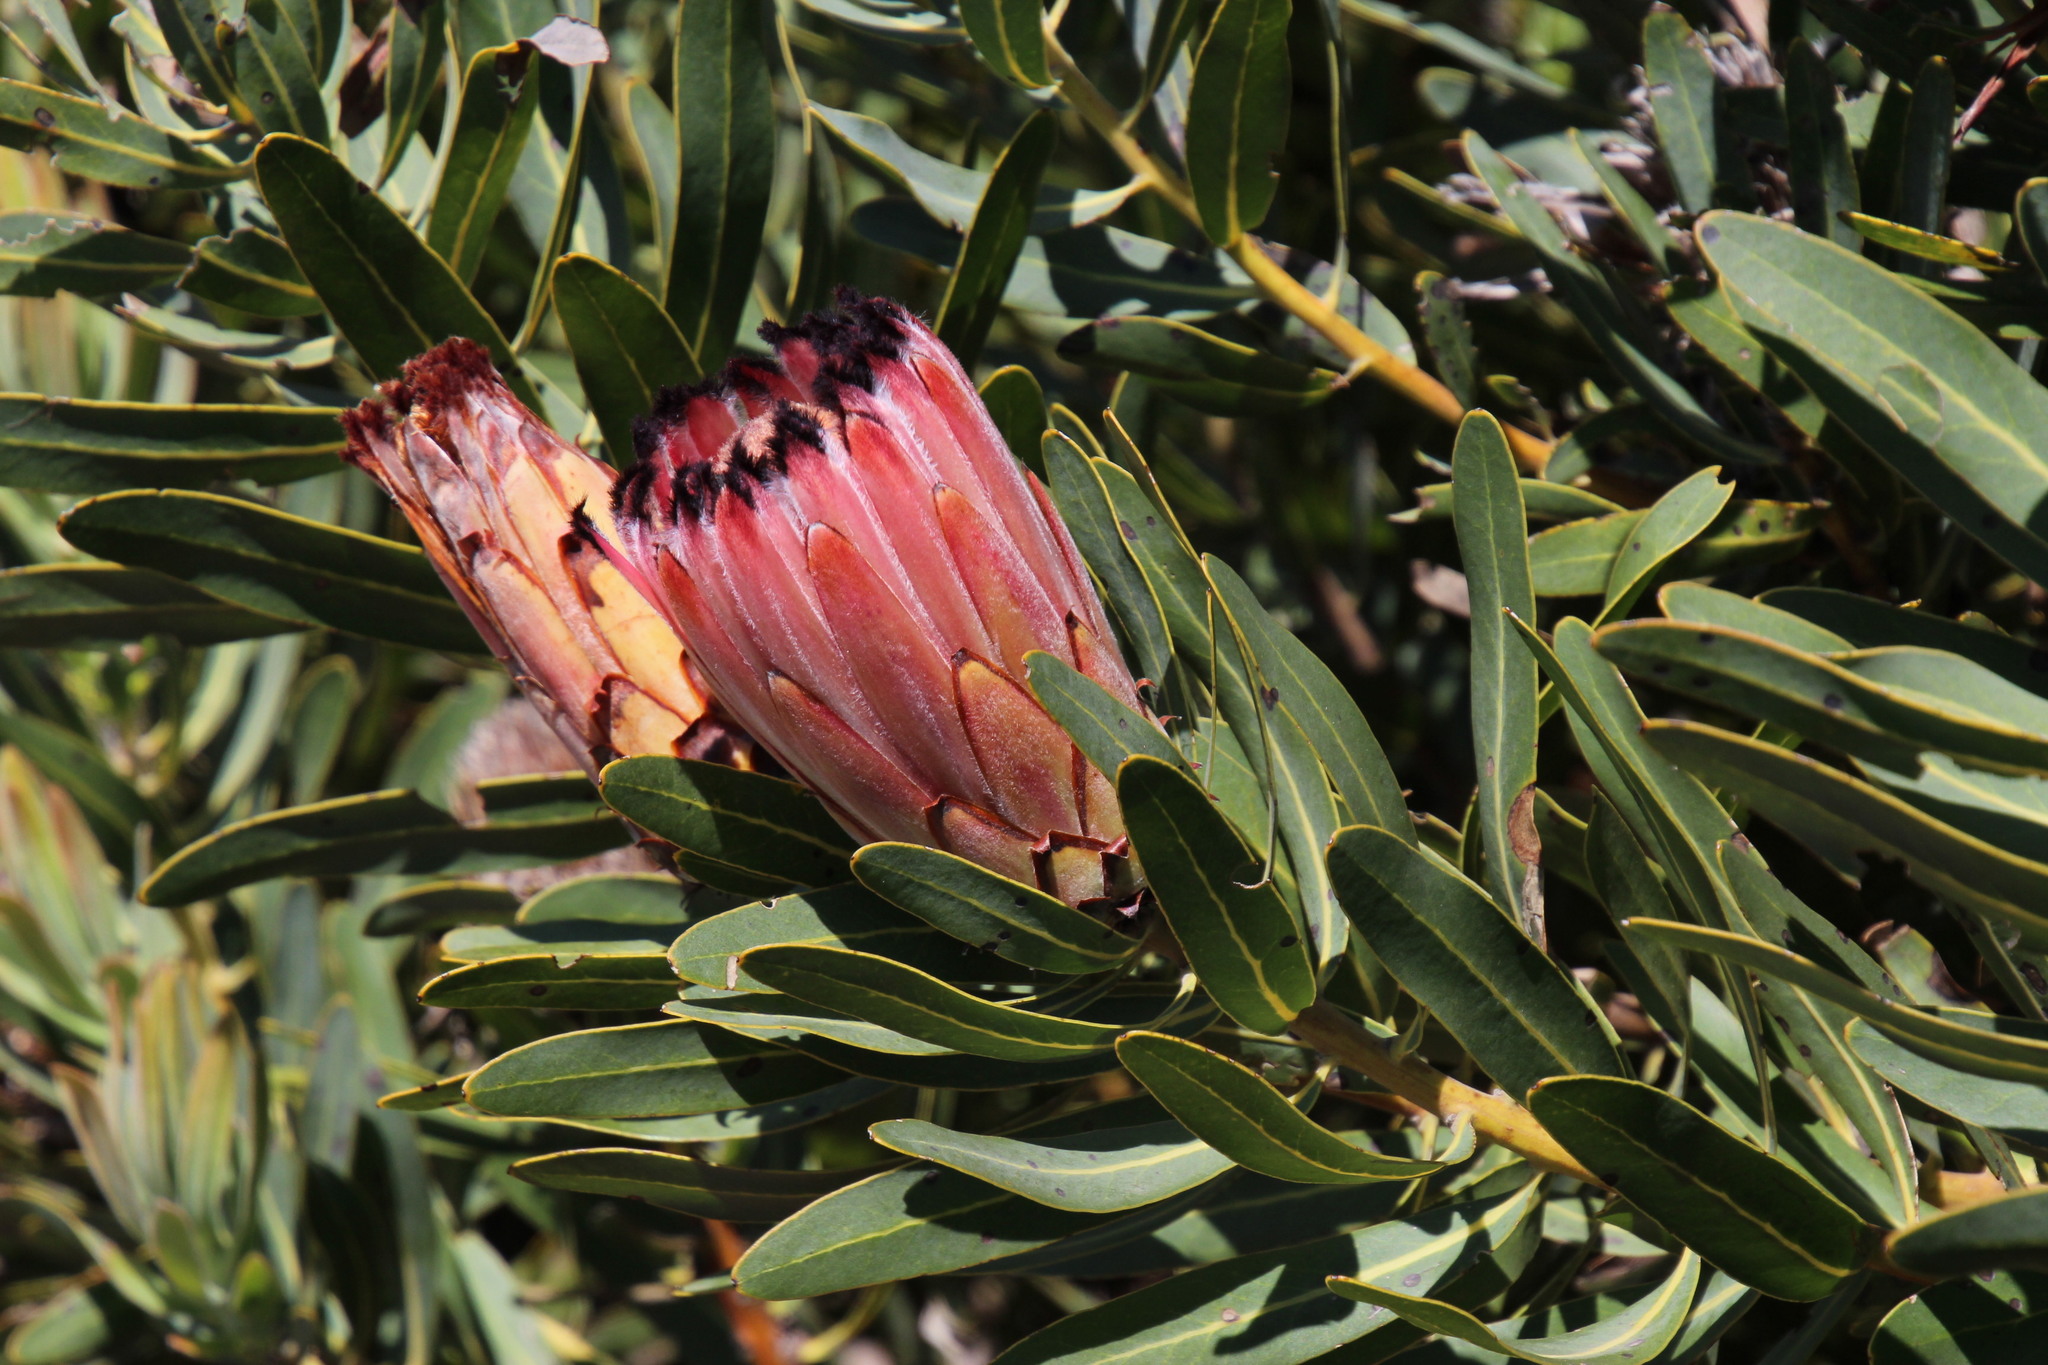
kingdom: Plantae
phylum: Tracheophyta
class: Magnoliopsida
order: Proteales
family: Proteaceae
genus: Protea
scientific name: Protea neriifolia
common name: Blue sugarbush
